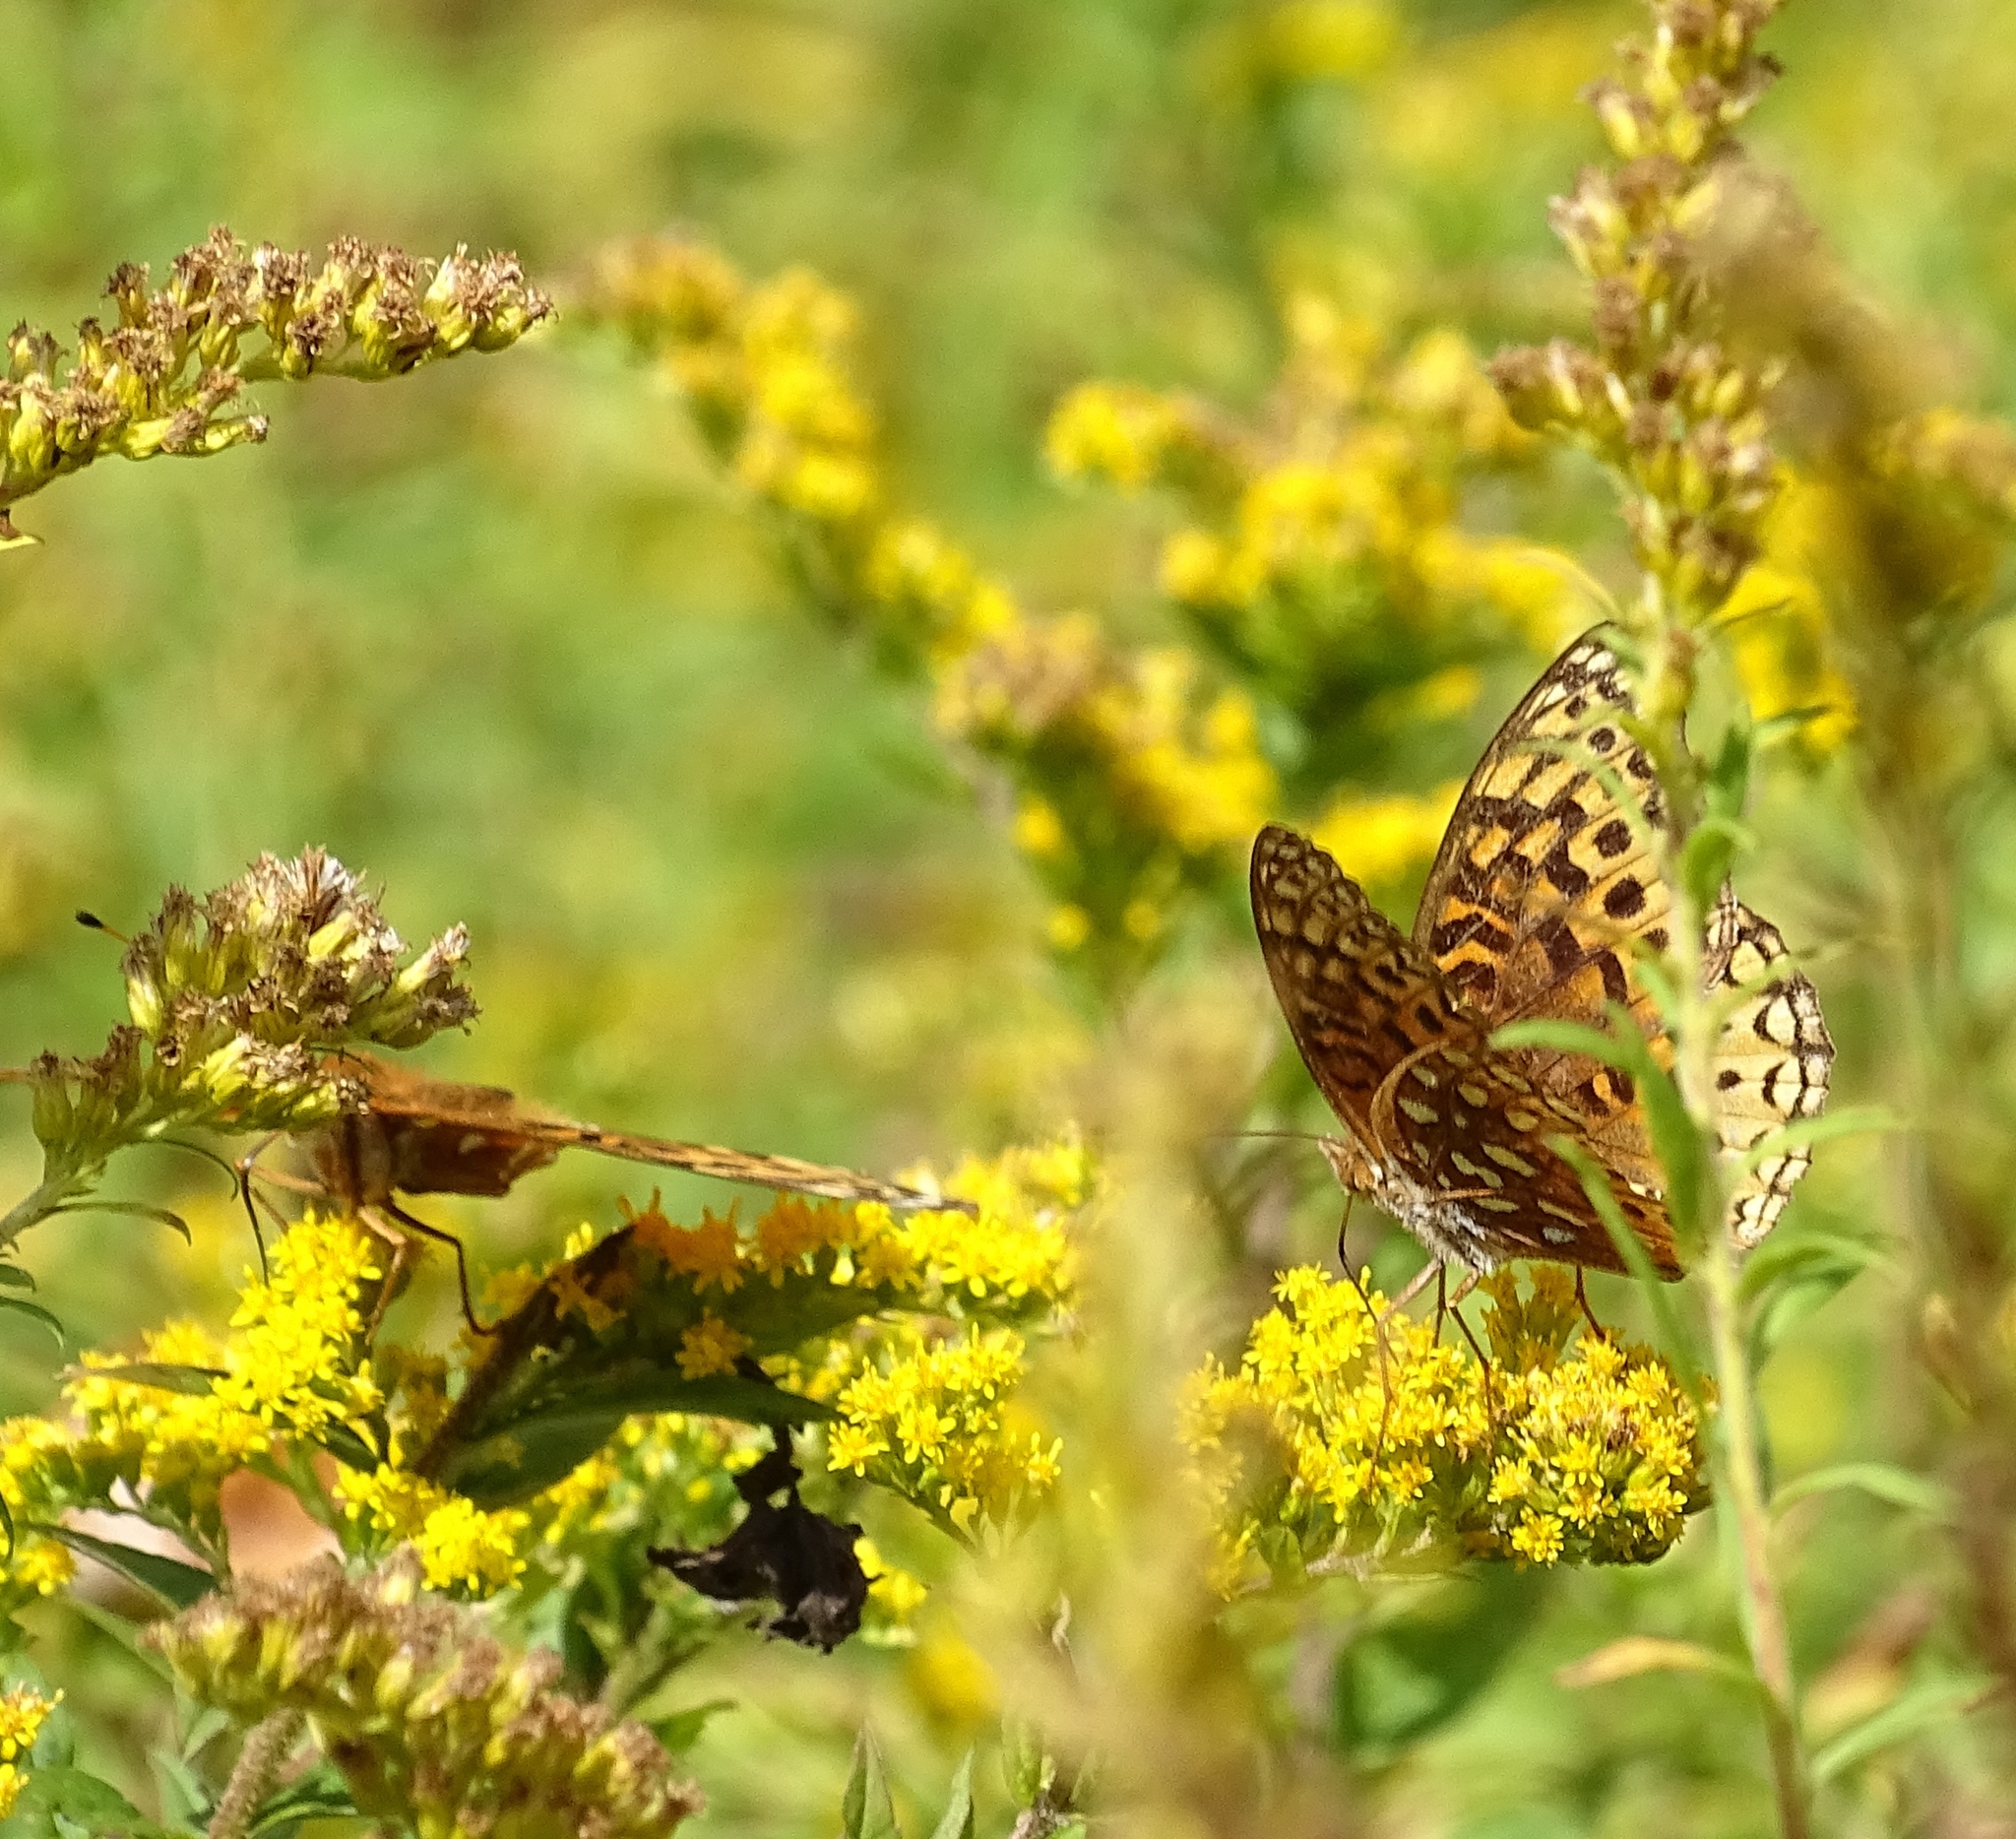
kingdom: Animalia
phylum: Arthropoda
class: Insecta
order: Lepidoptera
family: Nymphalidae
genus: Speyeria
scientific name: Speyeria cybele
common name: Great spangled fritillary
